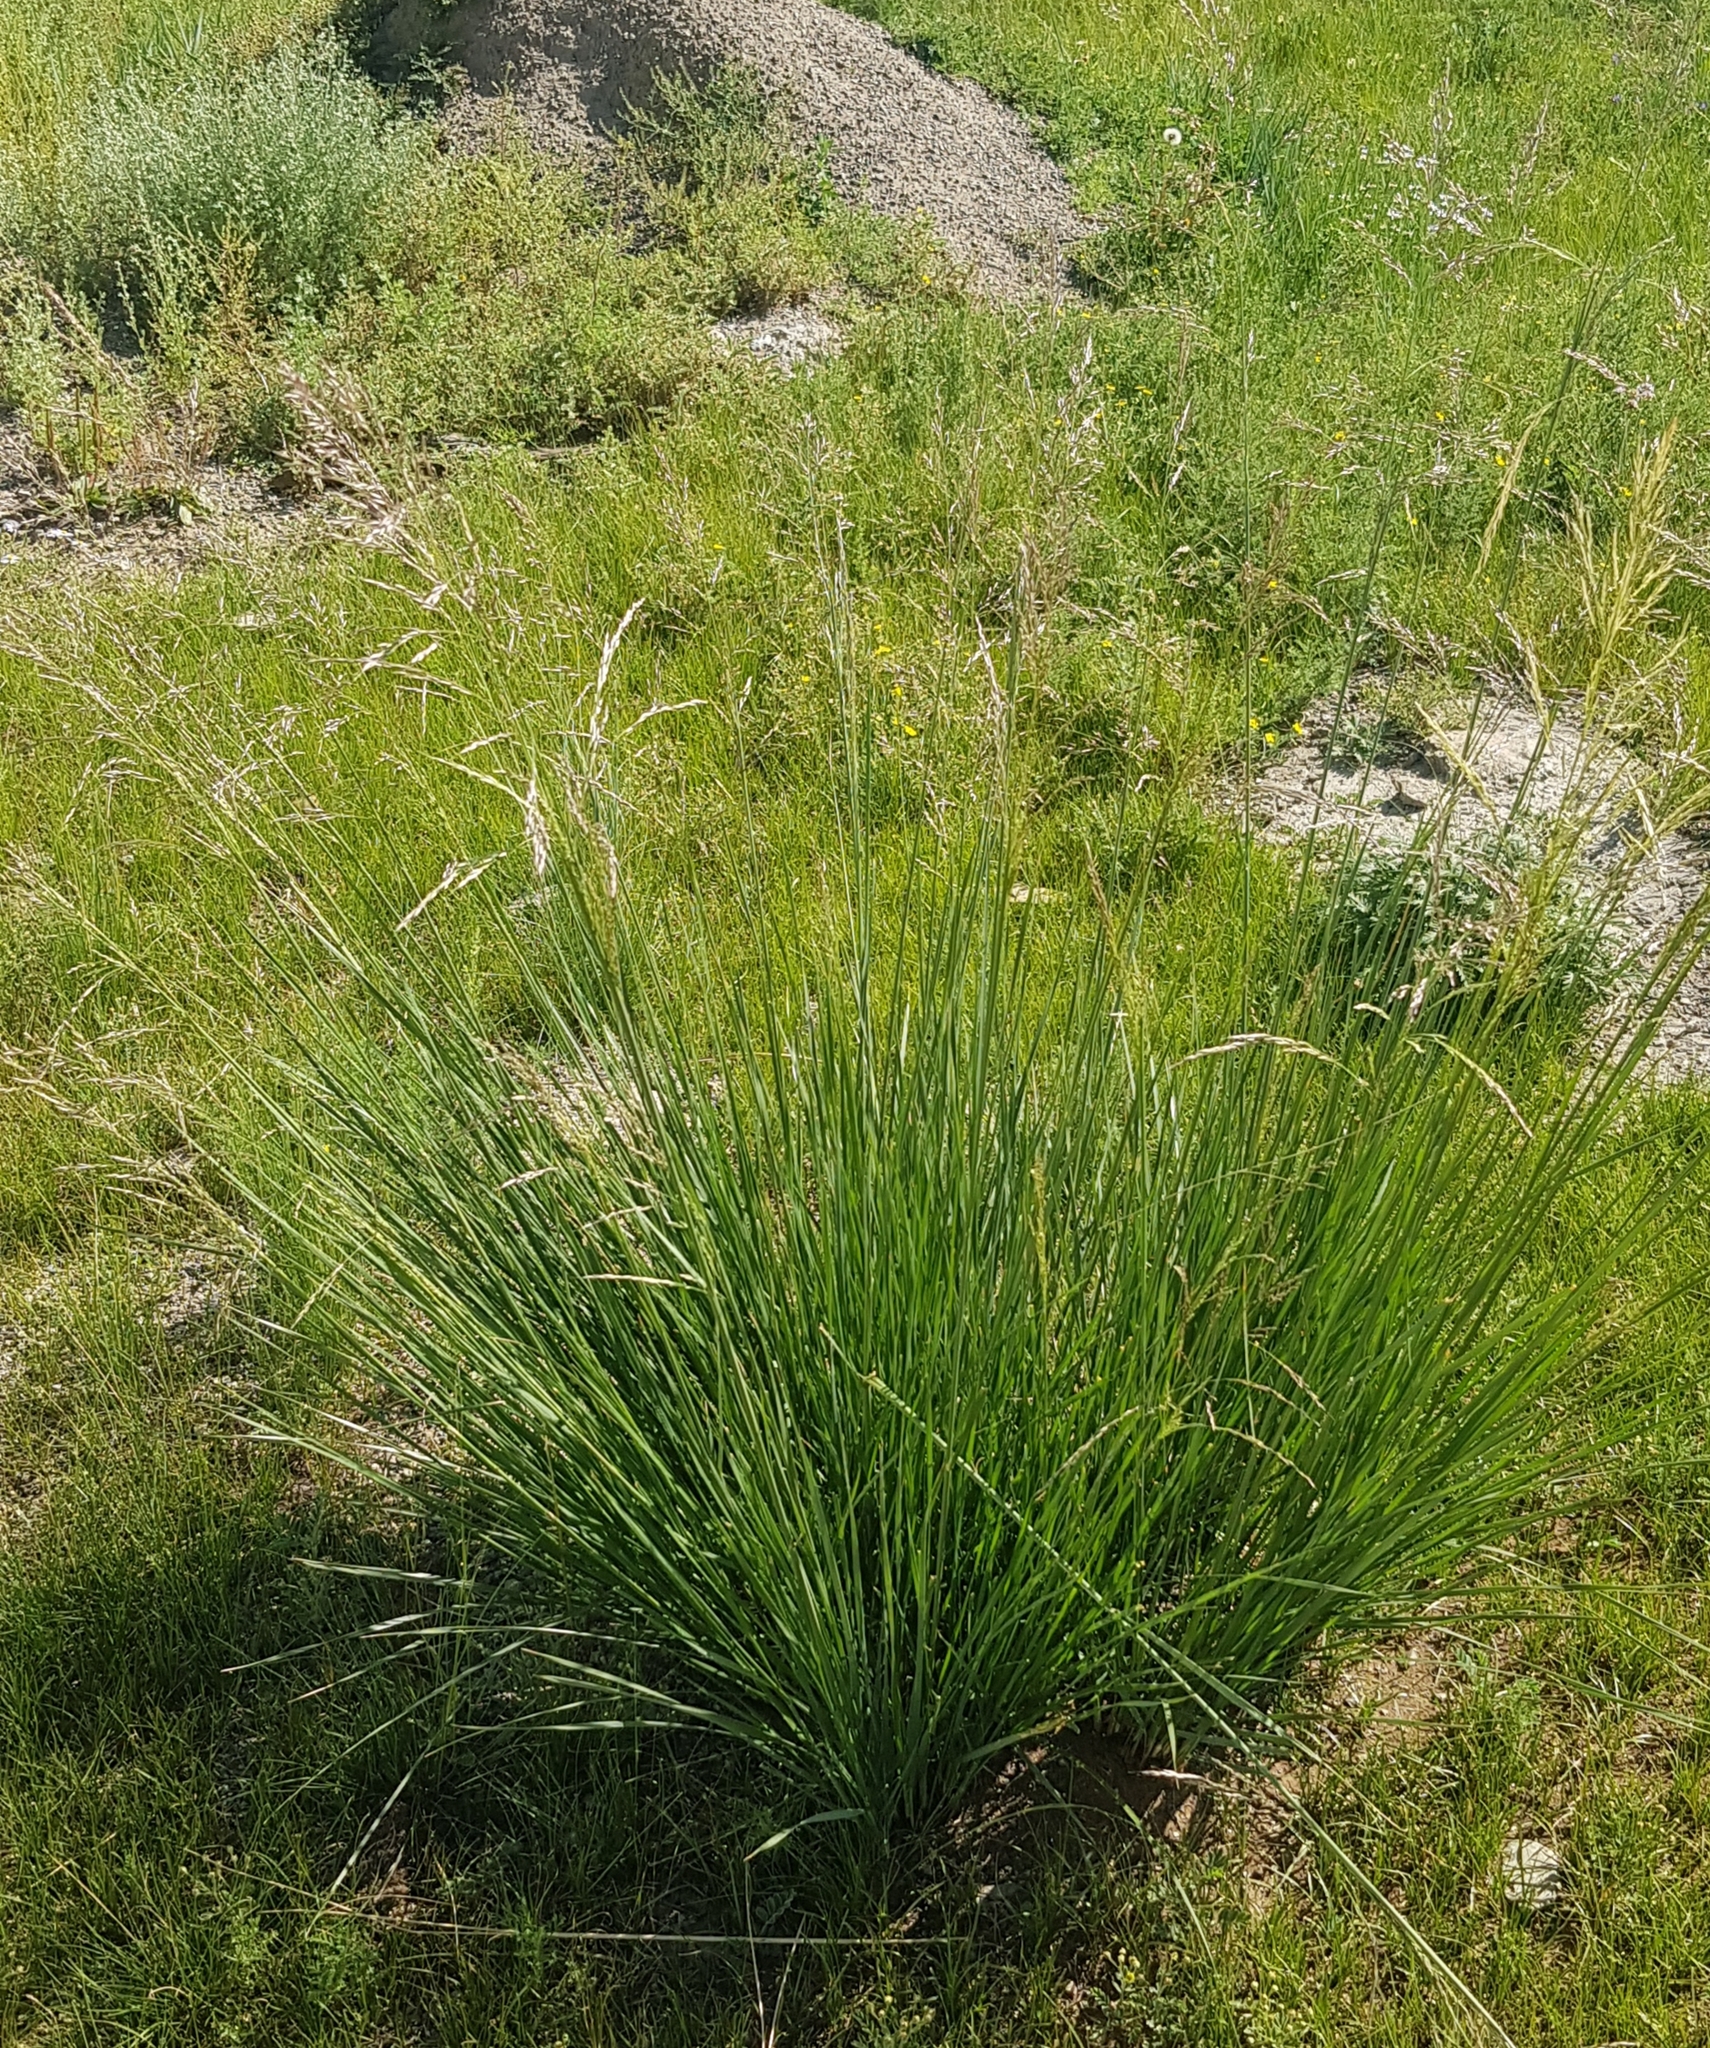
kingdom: Plantae
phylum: Tracheophyta
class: Liliopsida
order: Poales
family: Poaceae
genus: Neotrinia
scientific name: Neotrinia splendens
